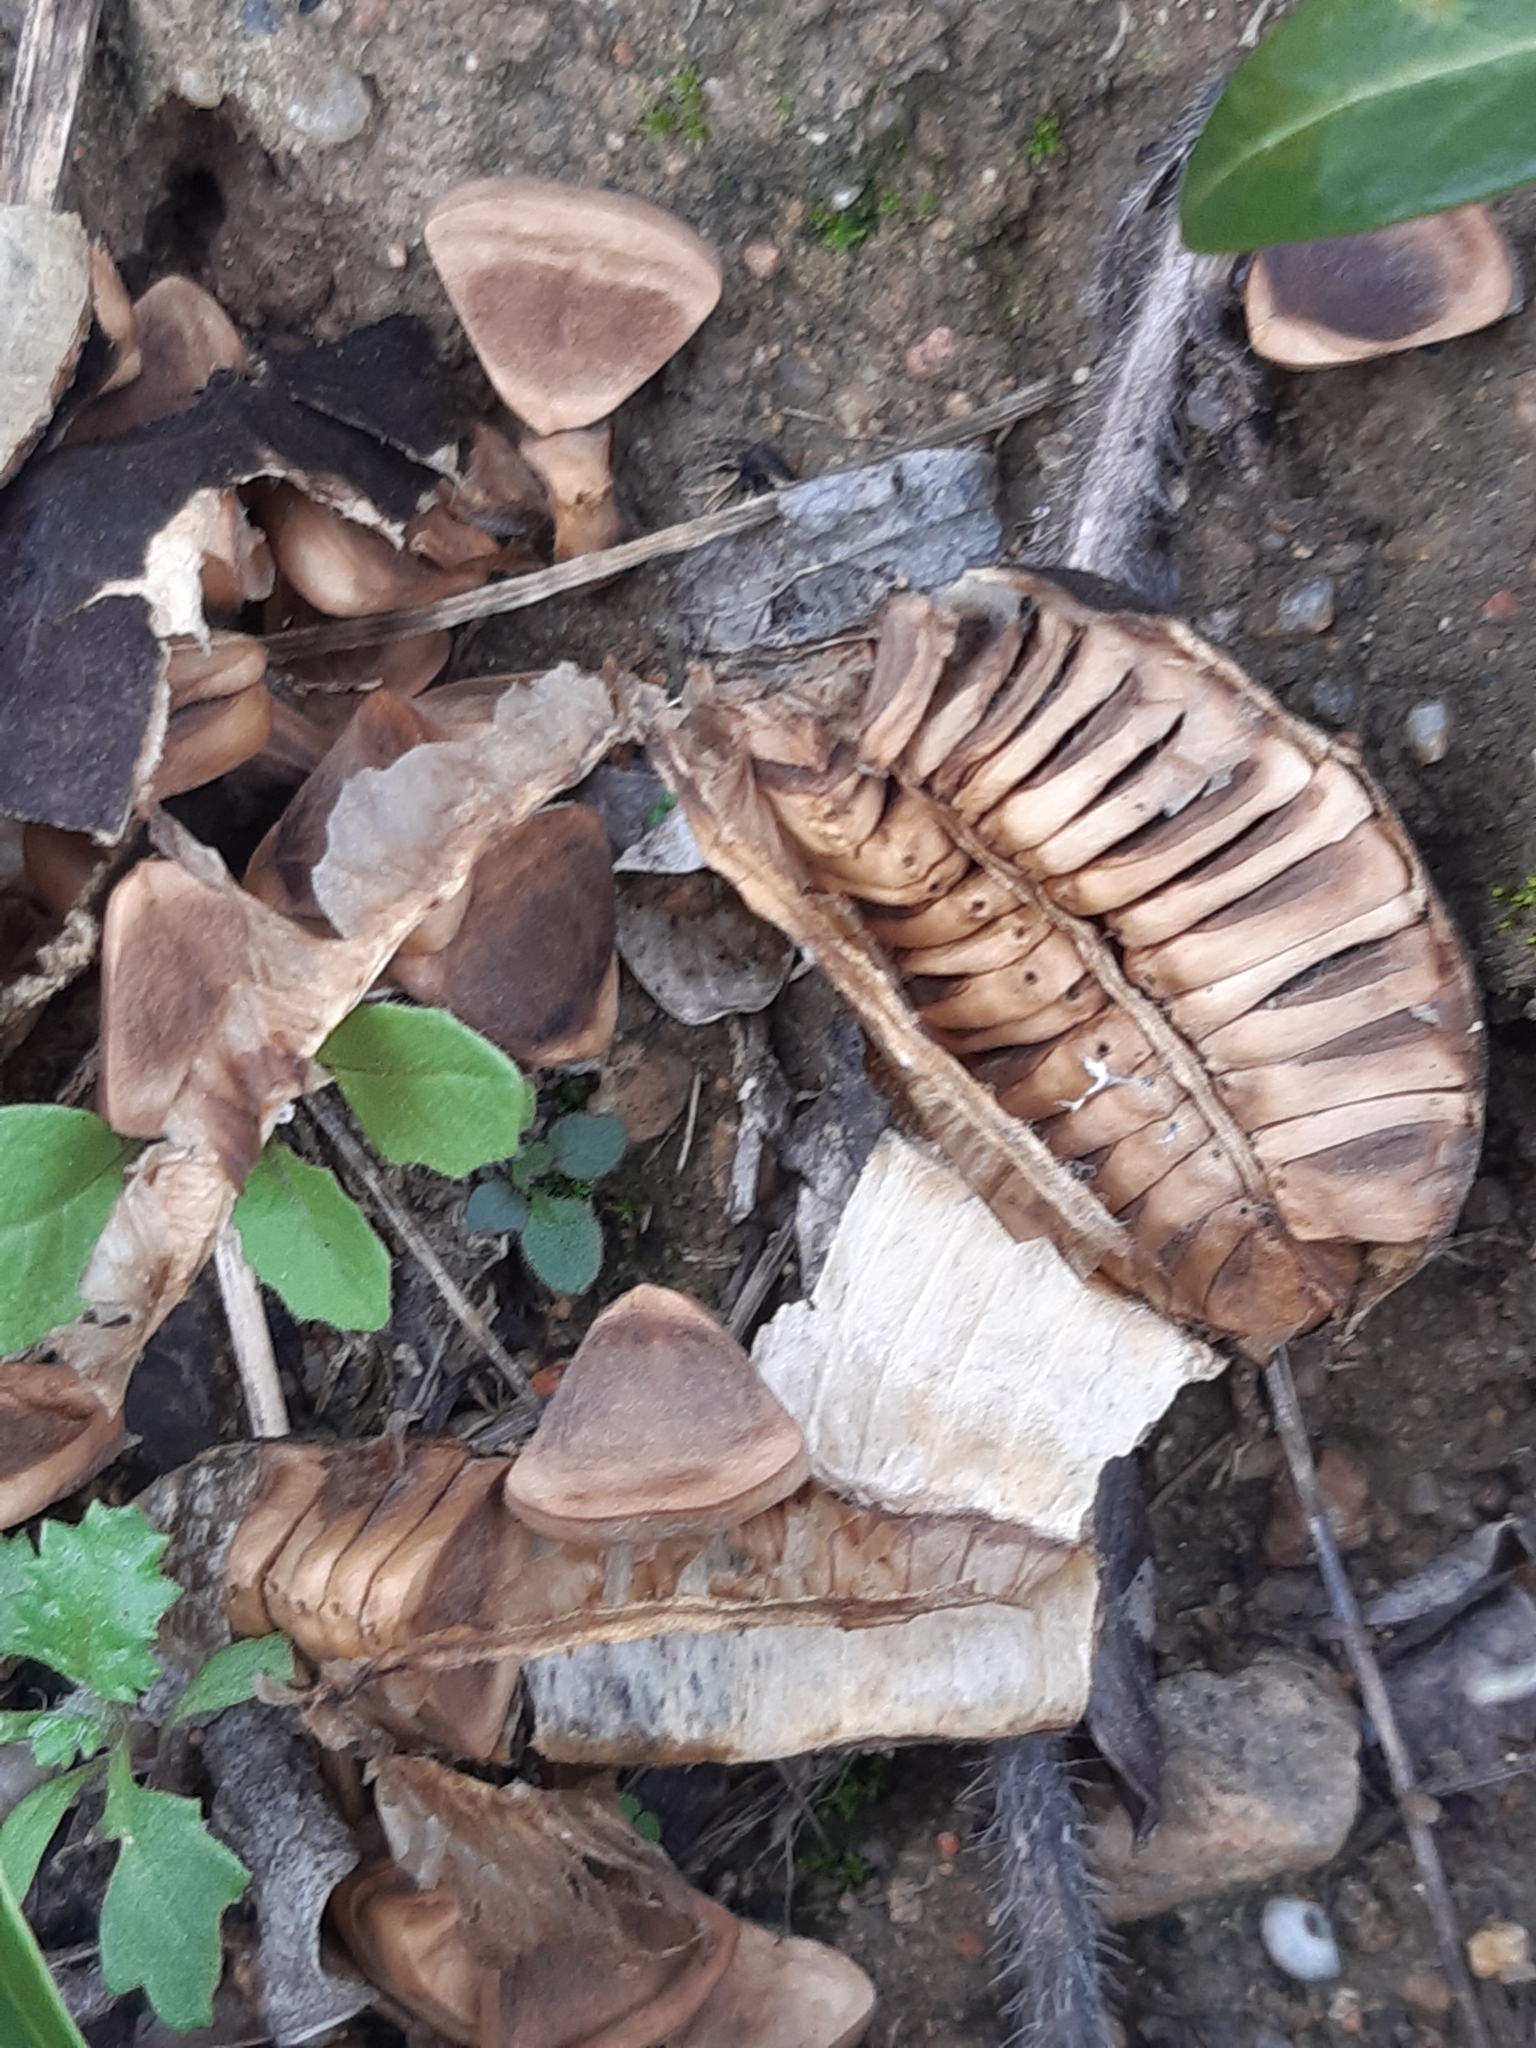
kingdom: Plantae
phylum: Tracheophyta
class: Magnoliopsida
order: Piperales
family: Aristolochiaceae
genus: Aristolochia
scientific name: Aristolochia clematitis
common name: Birthwort
